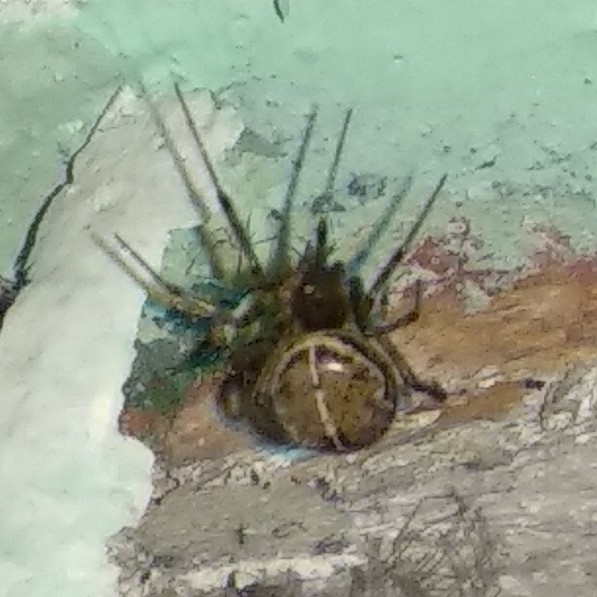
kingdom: Animalia
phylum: Arthropoda
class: Arachnida
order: Araneae
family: Theridiidae
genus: Steatoda
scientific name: Steatoda castanea
